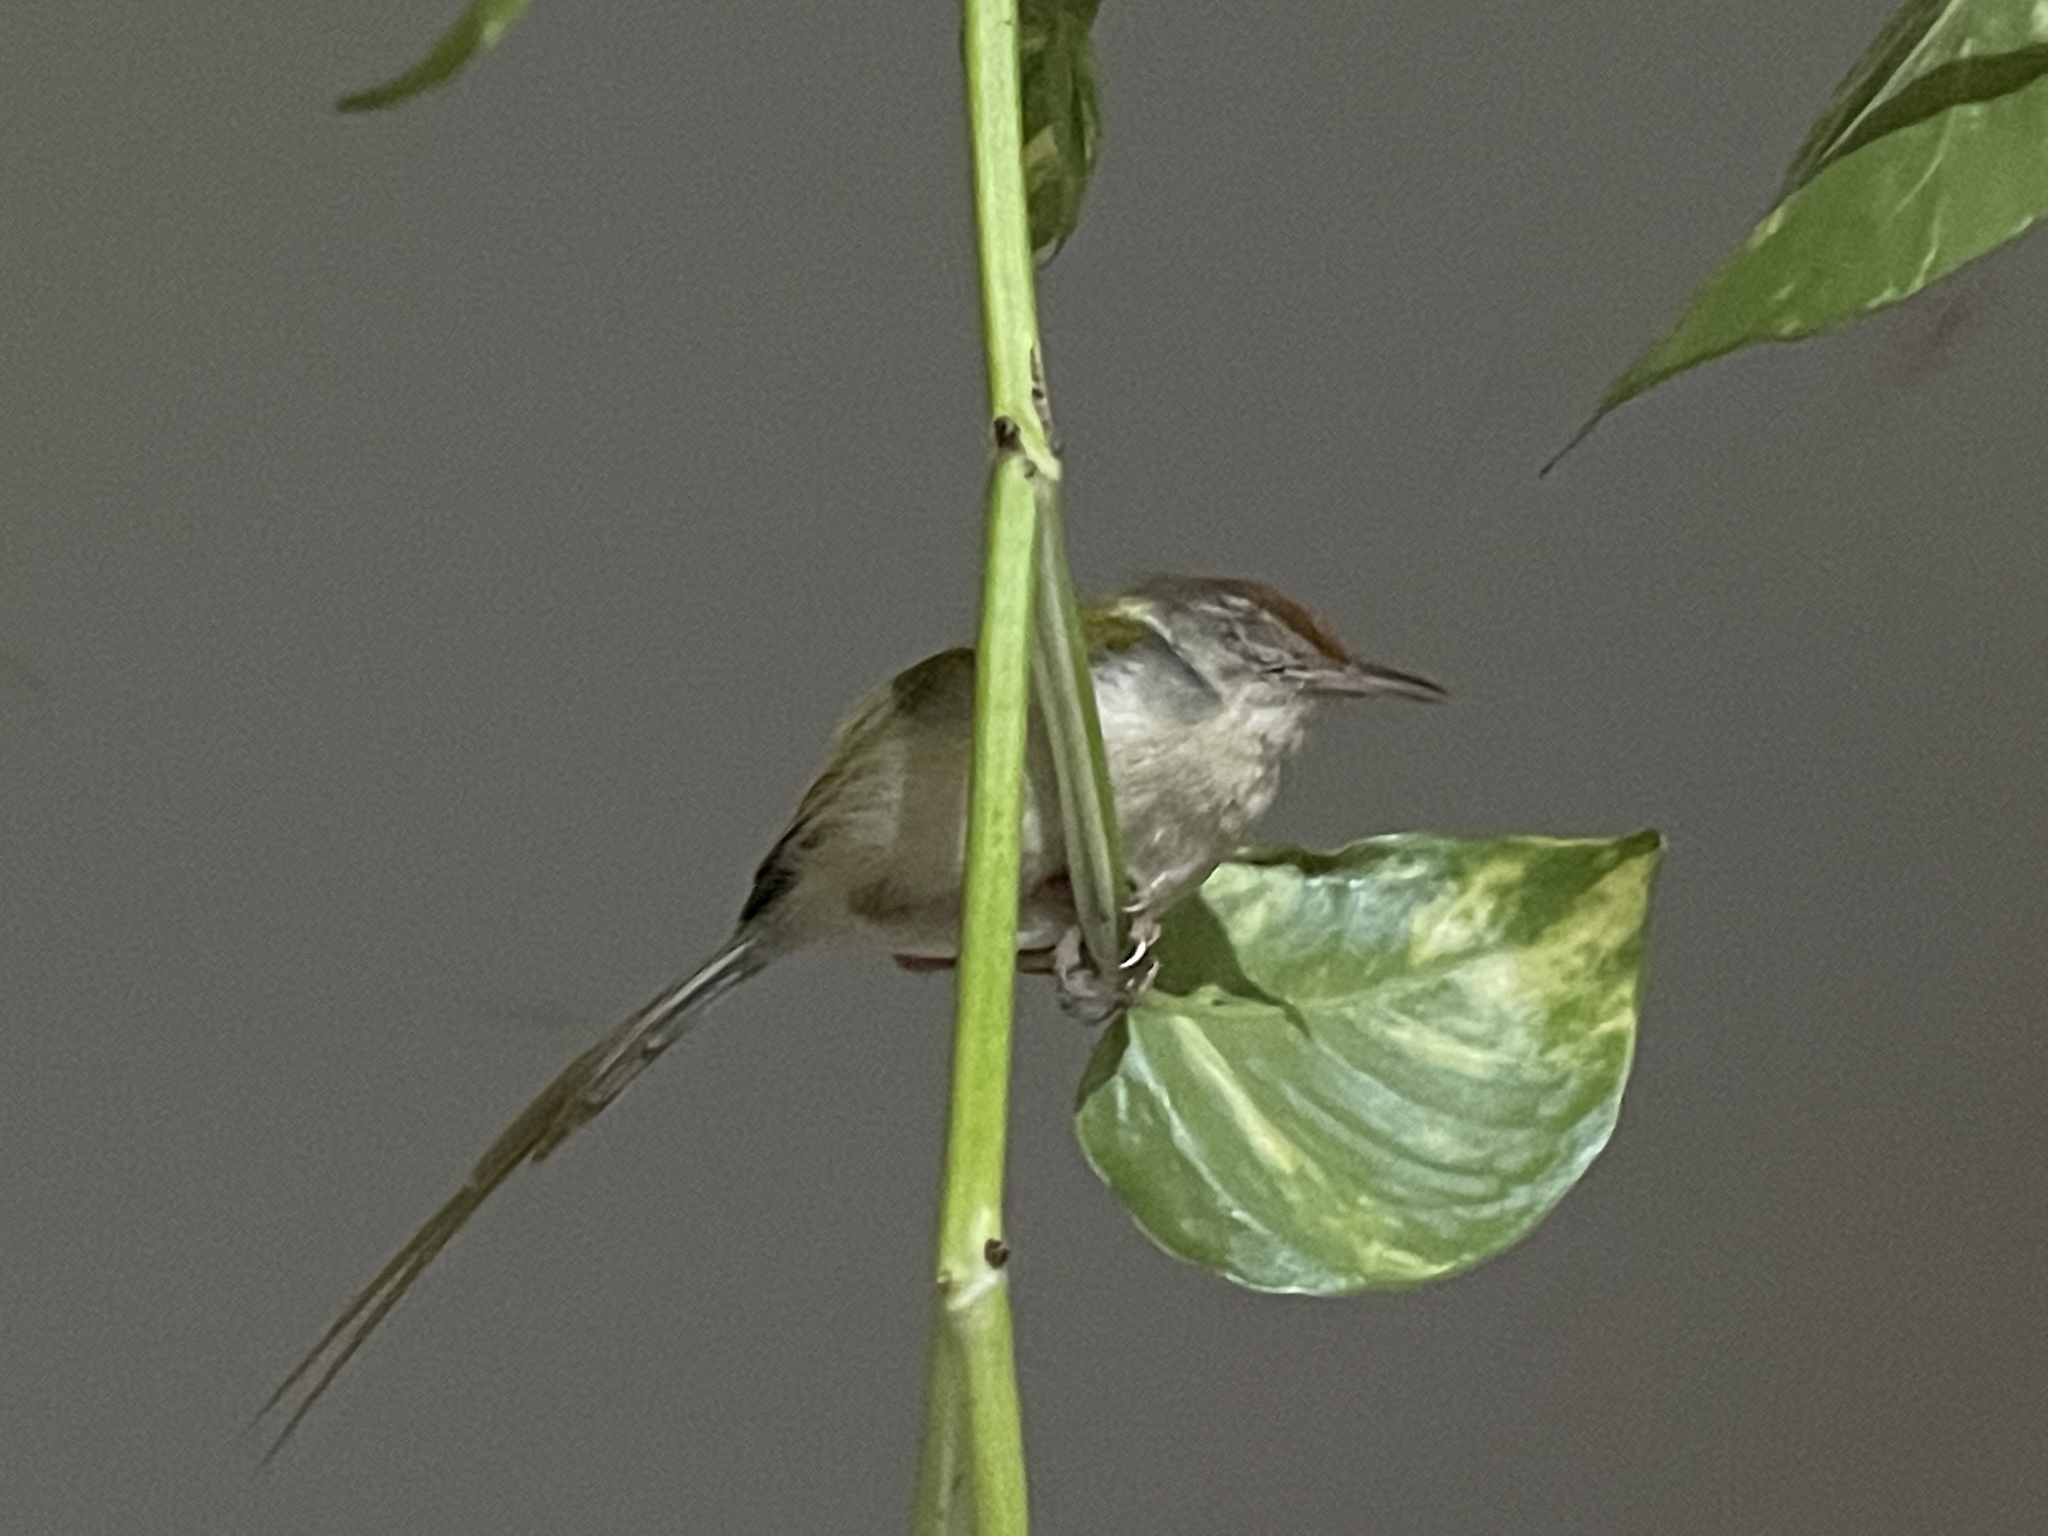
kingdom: Animalia
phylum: Chordata
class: Aves
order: Passeriformes
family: Cisticolidae
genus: Orthotomus
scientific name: Orthotomus sutorius
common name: Common tailorbird
